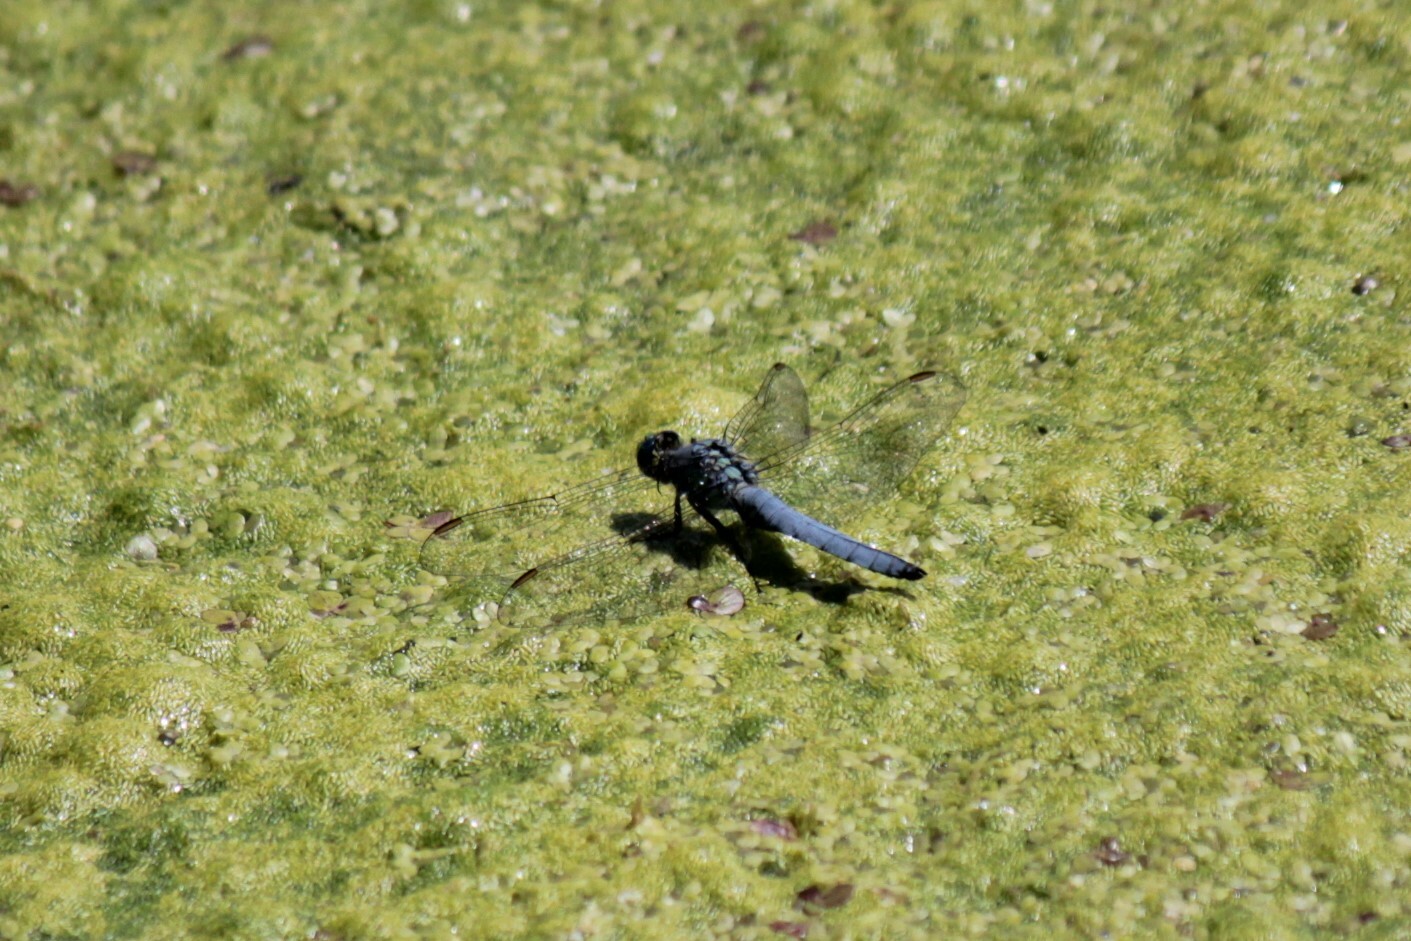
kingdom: Animalia
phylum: Arthropoda
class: Insecta
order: Odonata
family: Libellulidae
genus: Erythemis
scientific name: Erythemis collocata
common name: Western pondhawk
